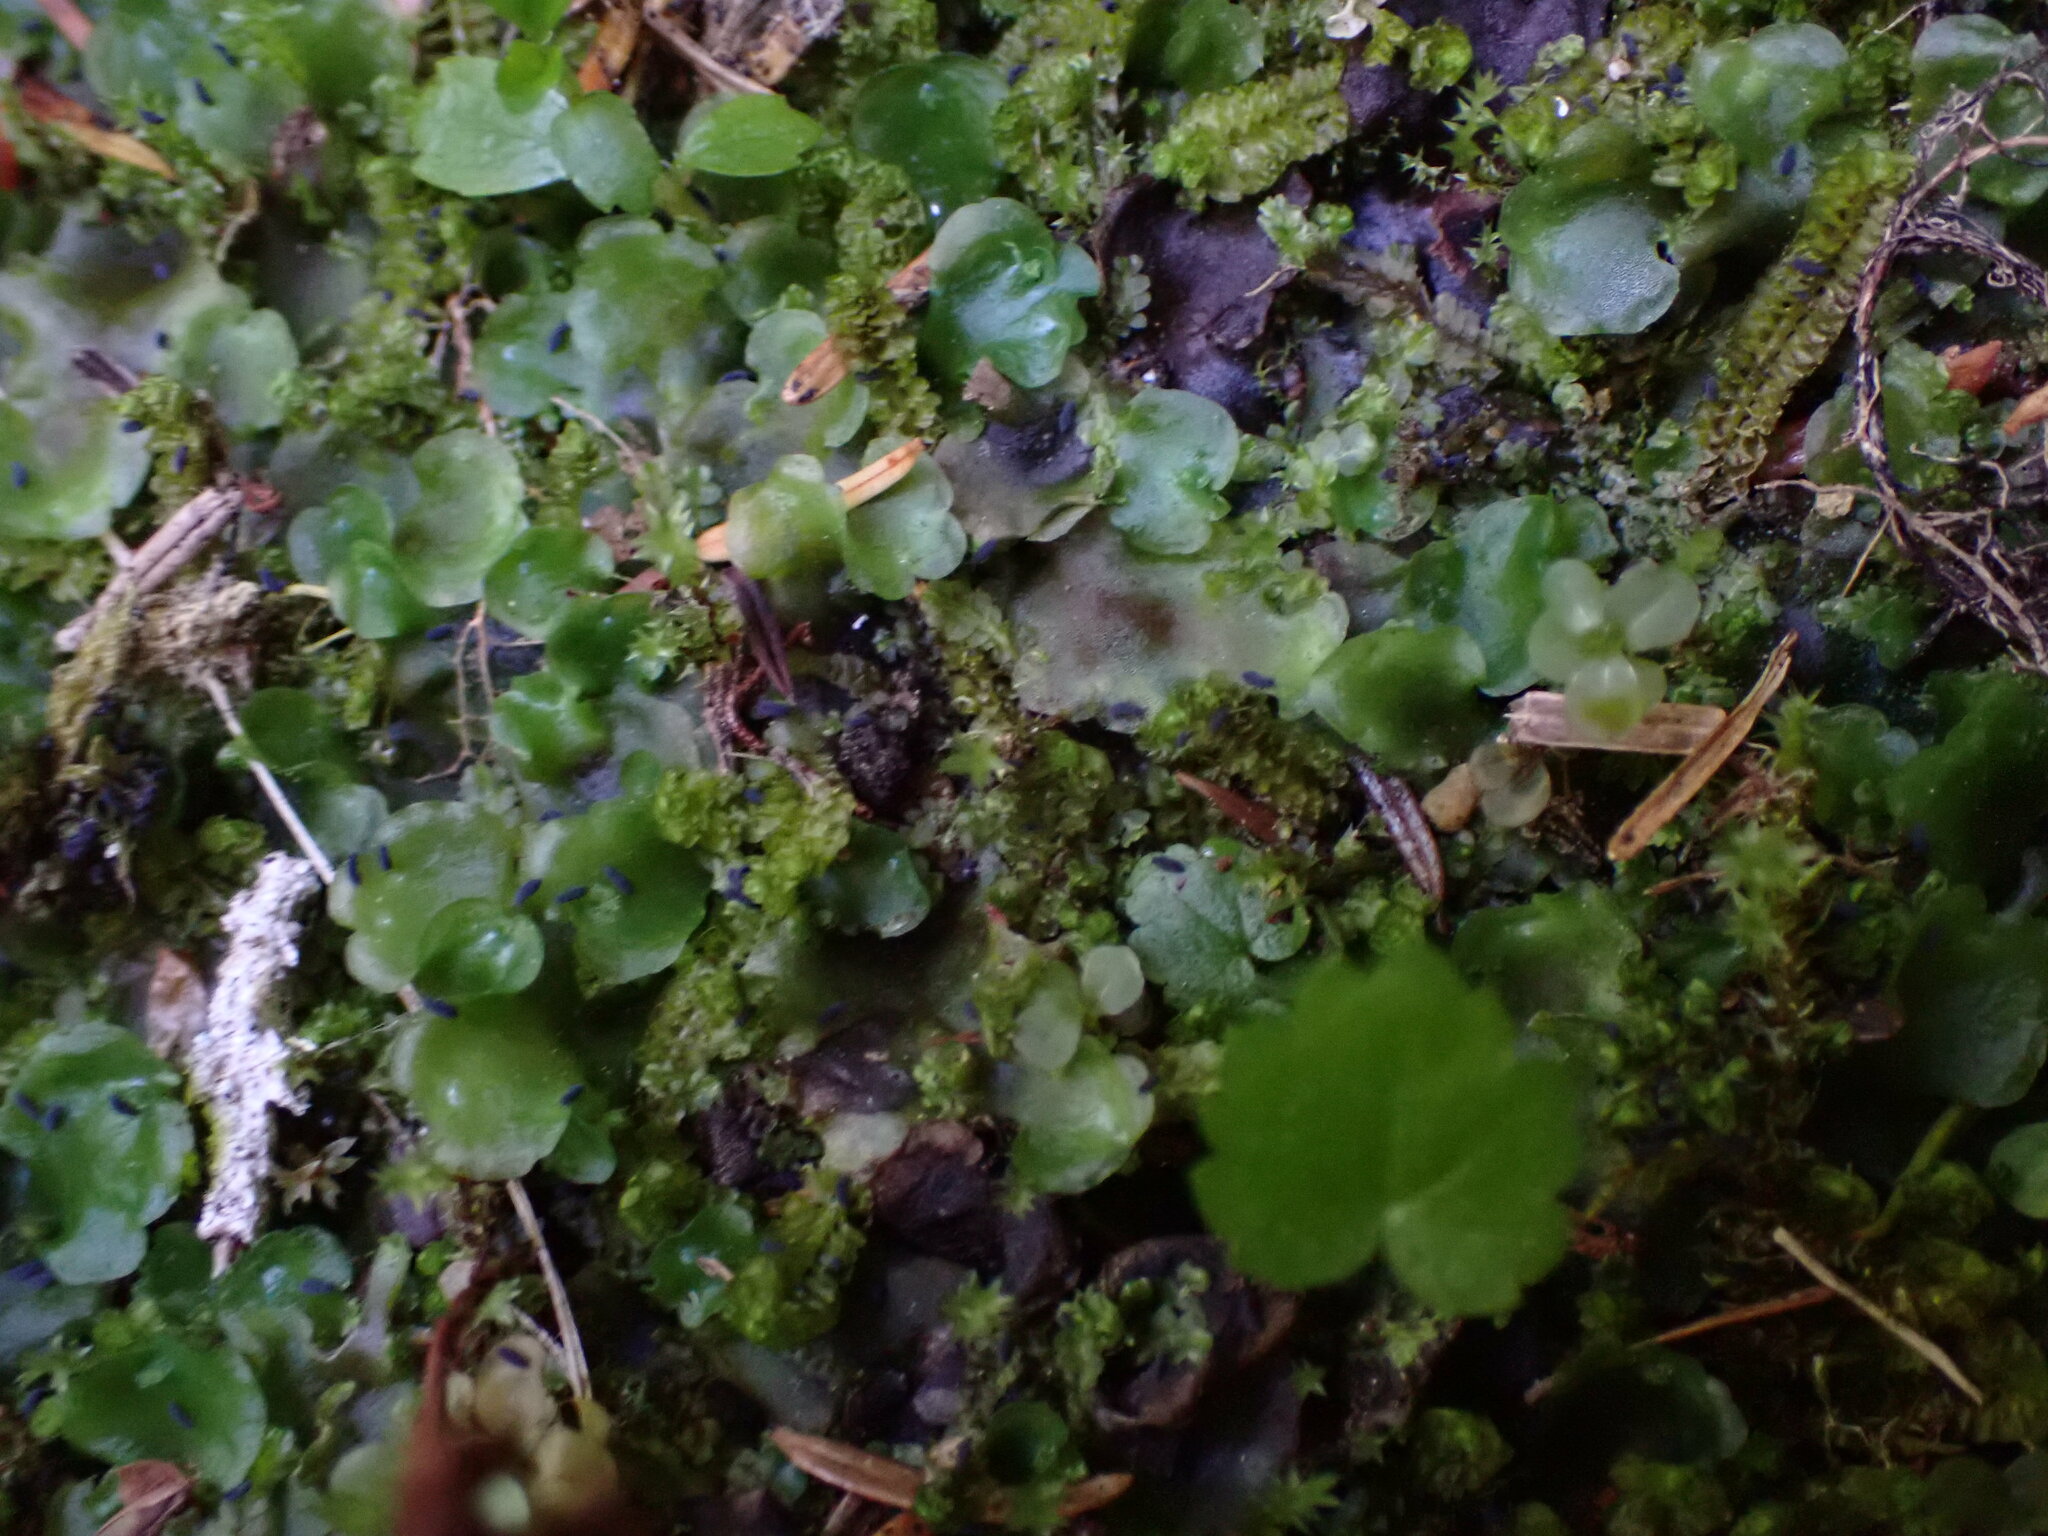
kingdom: Plantae
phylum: Marchantiophyta
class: Jungermanniopsida
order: Pelliales
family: Pelliaceae
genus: Pellia
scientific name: Pellia neesiana
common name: Nees  pellia
